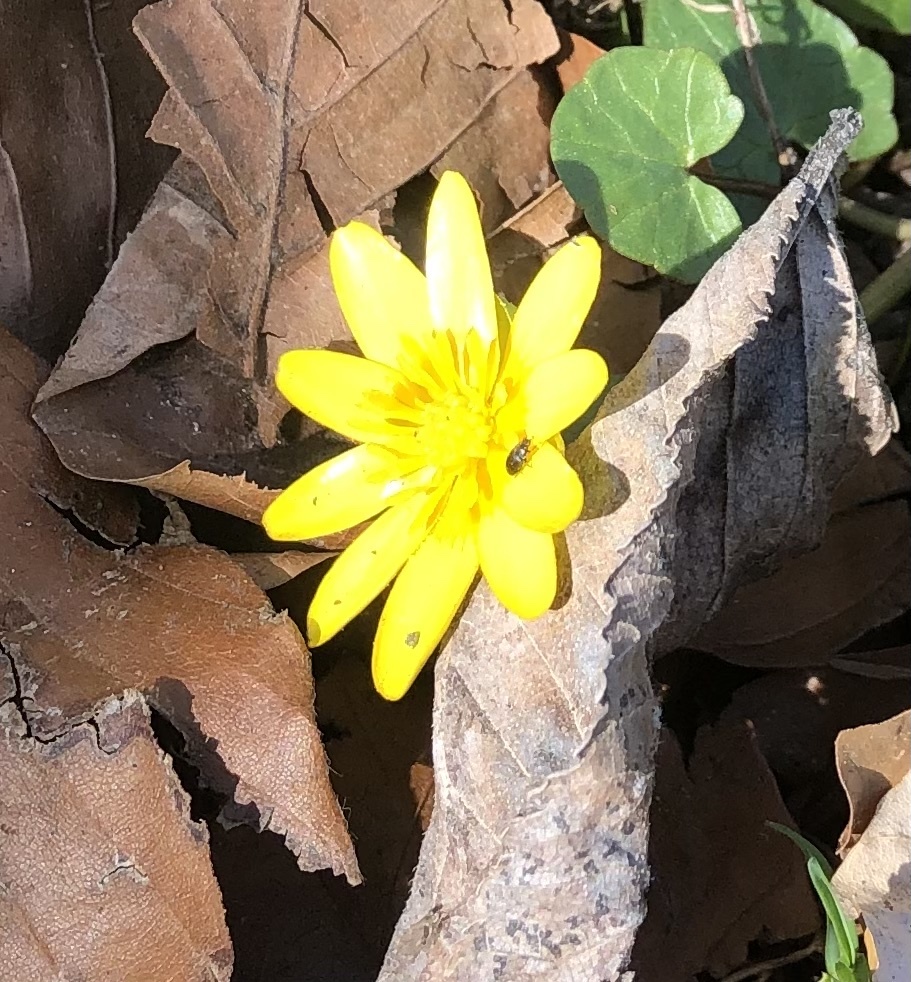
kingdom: Plantae
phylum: Tracheophyta
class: Magnoliopsida
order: Ranunculales
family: Ranunculaceae
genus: Ficaria
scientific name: Ficaria verna
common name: Lesser celandine
